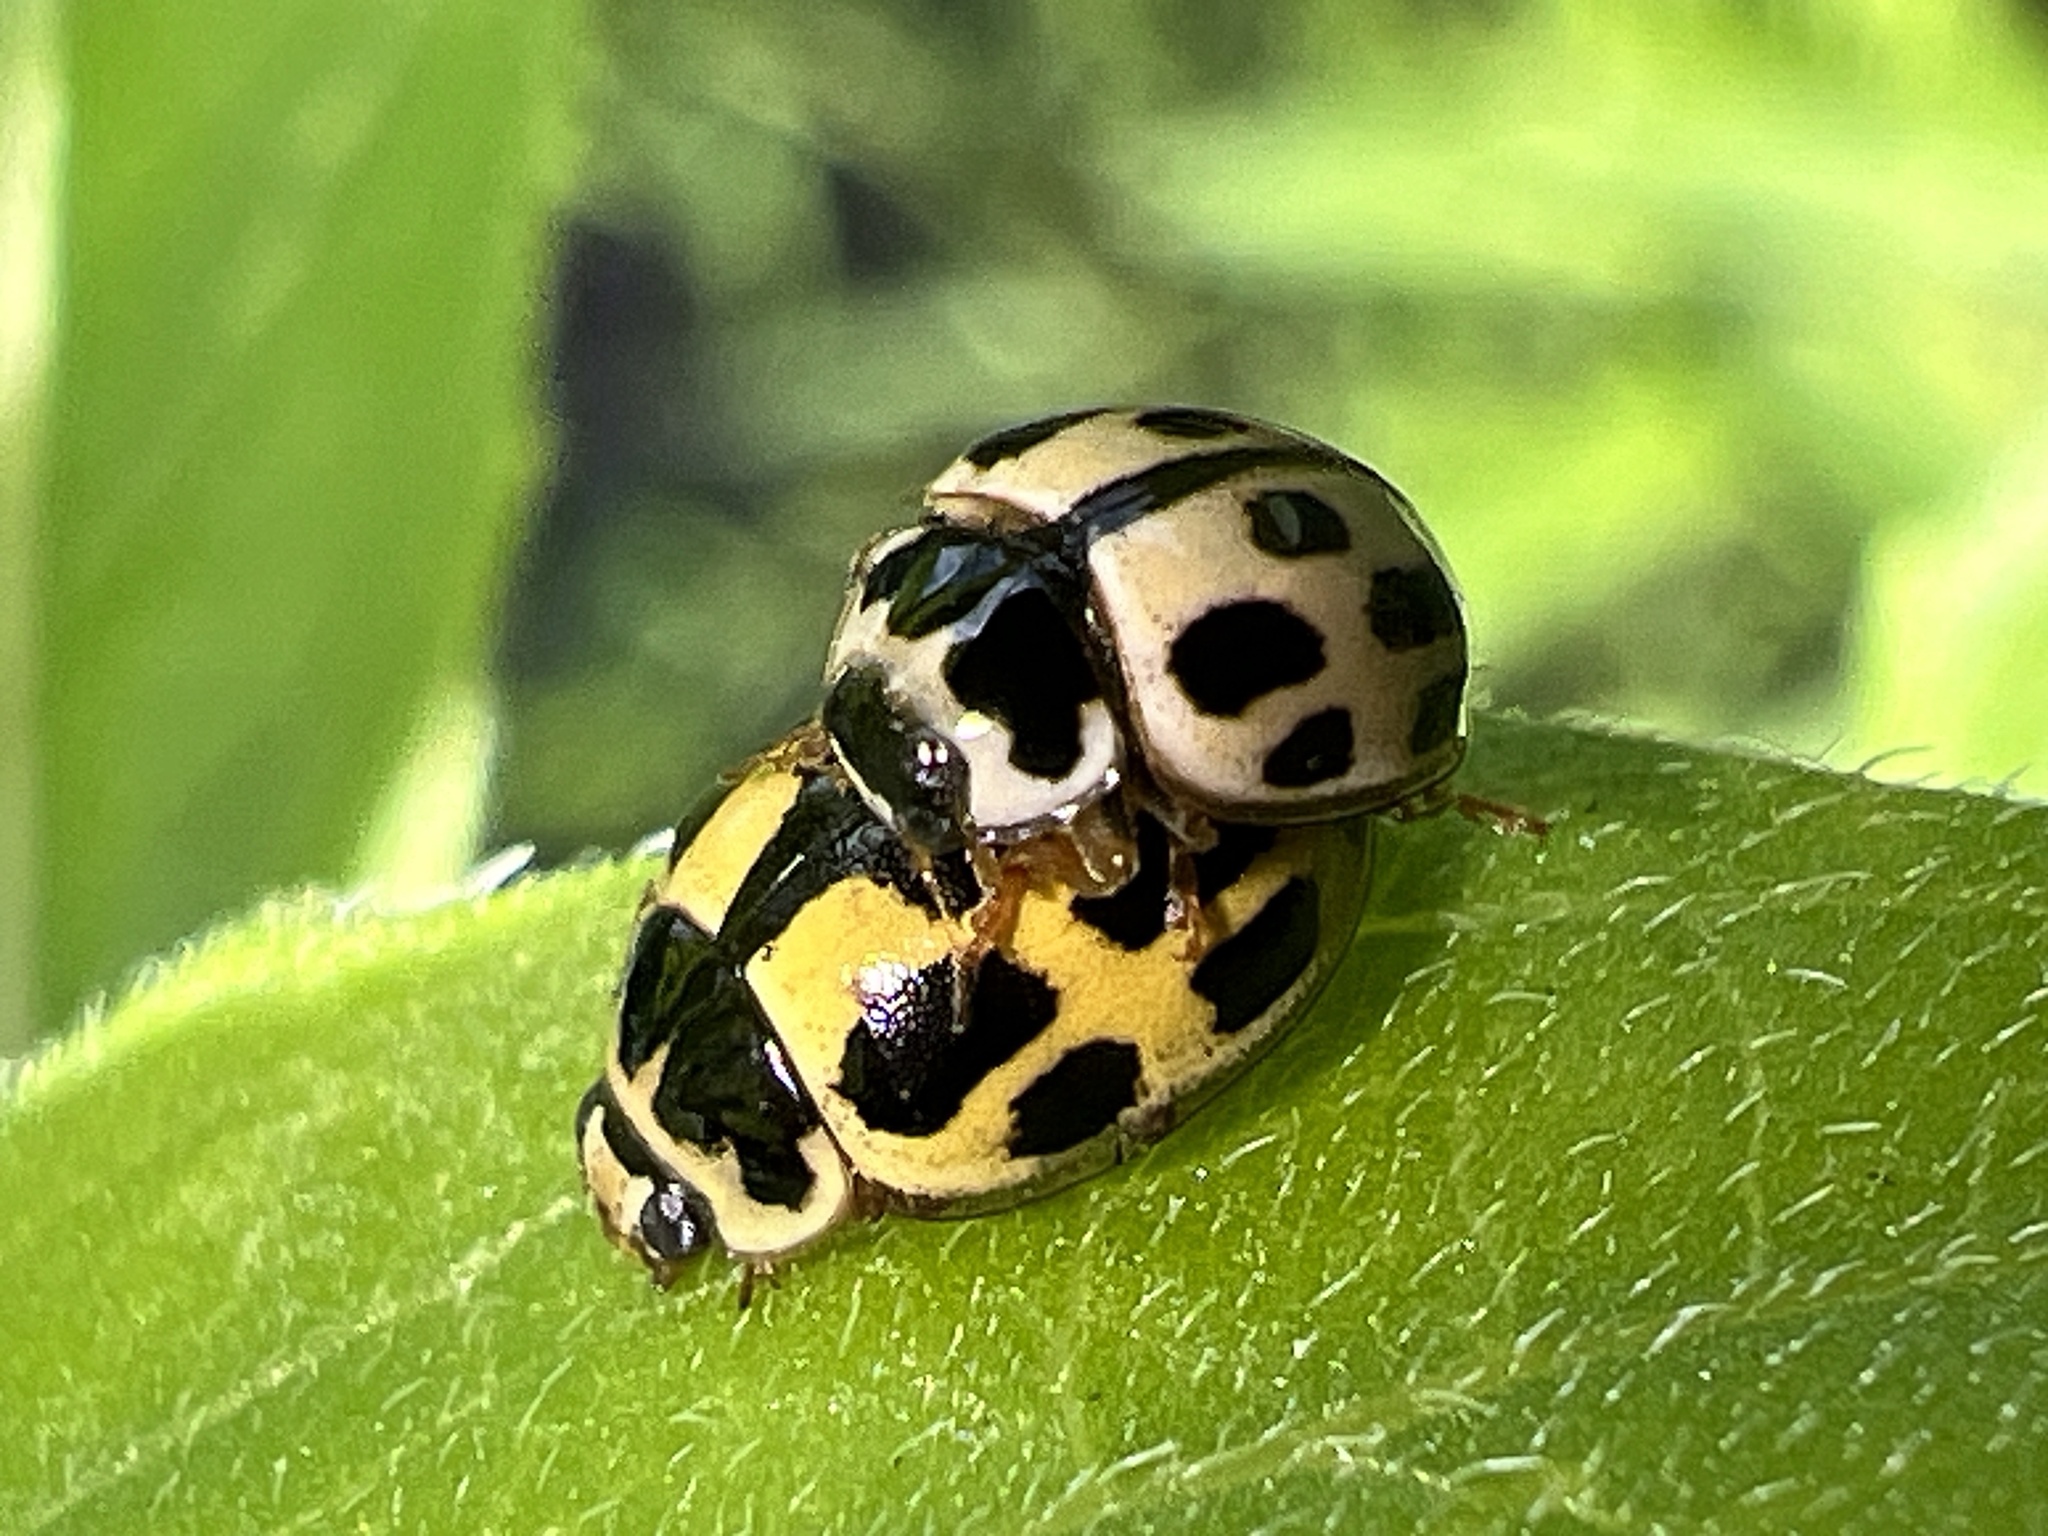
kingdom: Animalia
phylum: Arthropoda
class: Insecta
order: Coleoptera
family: Coccinellidae
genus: Propylaea
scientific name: Propylaea quatuordecimpunctata
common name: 14-spotted ladybird beetle
